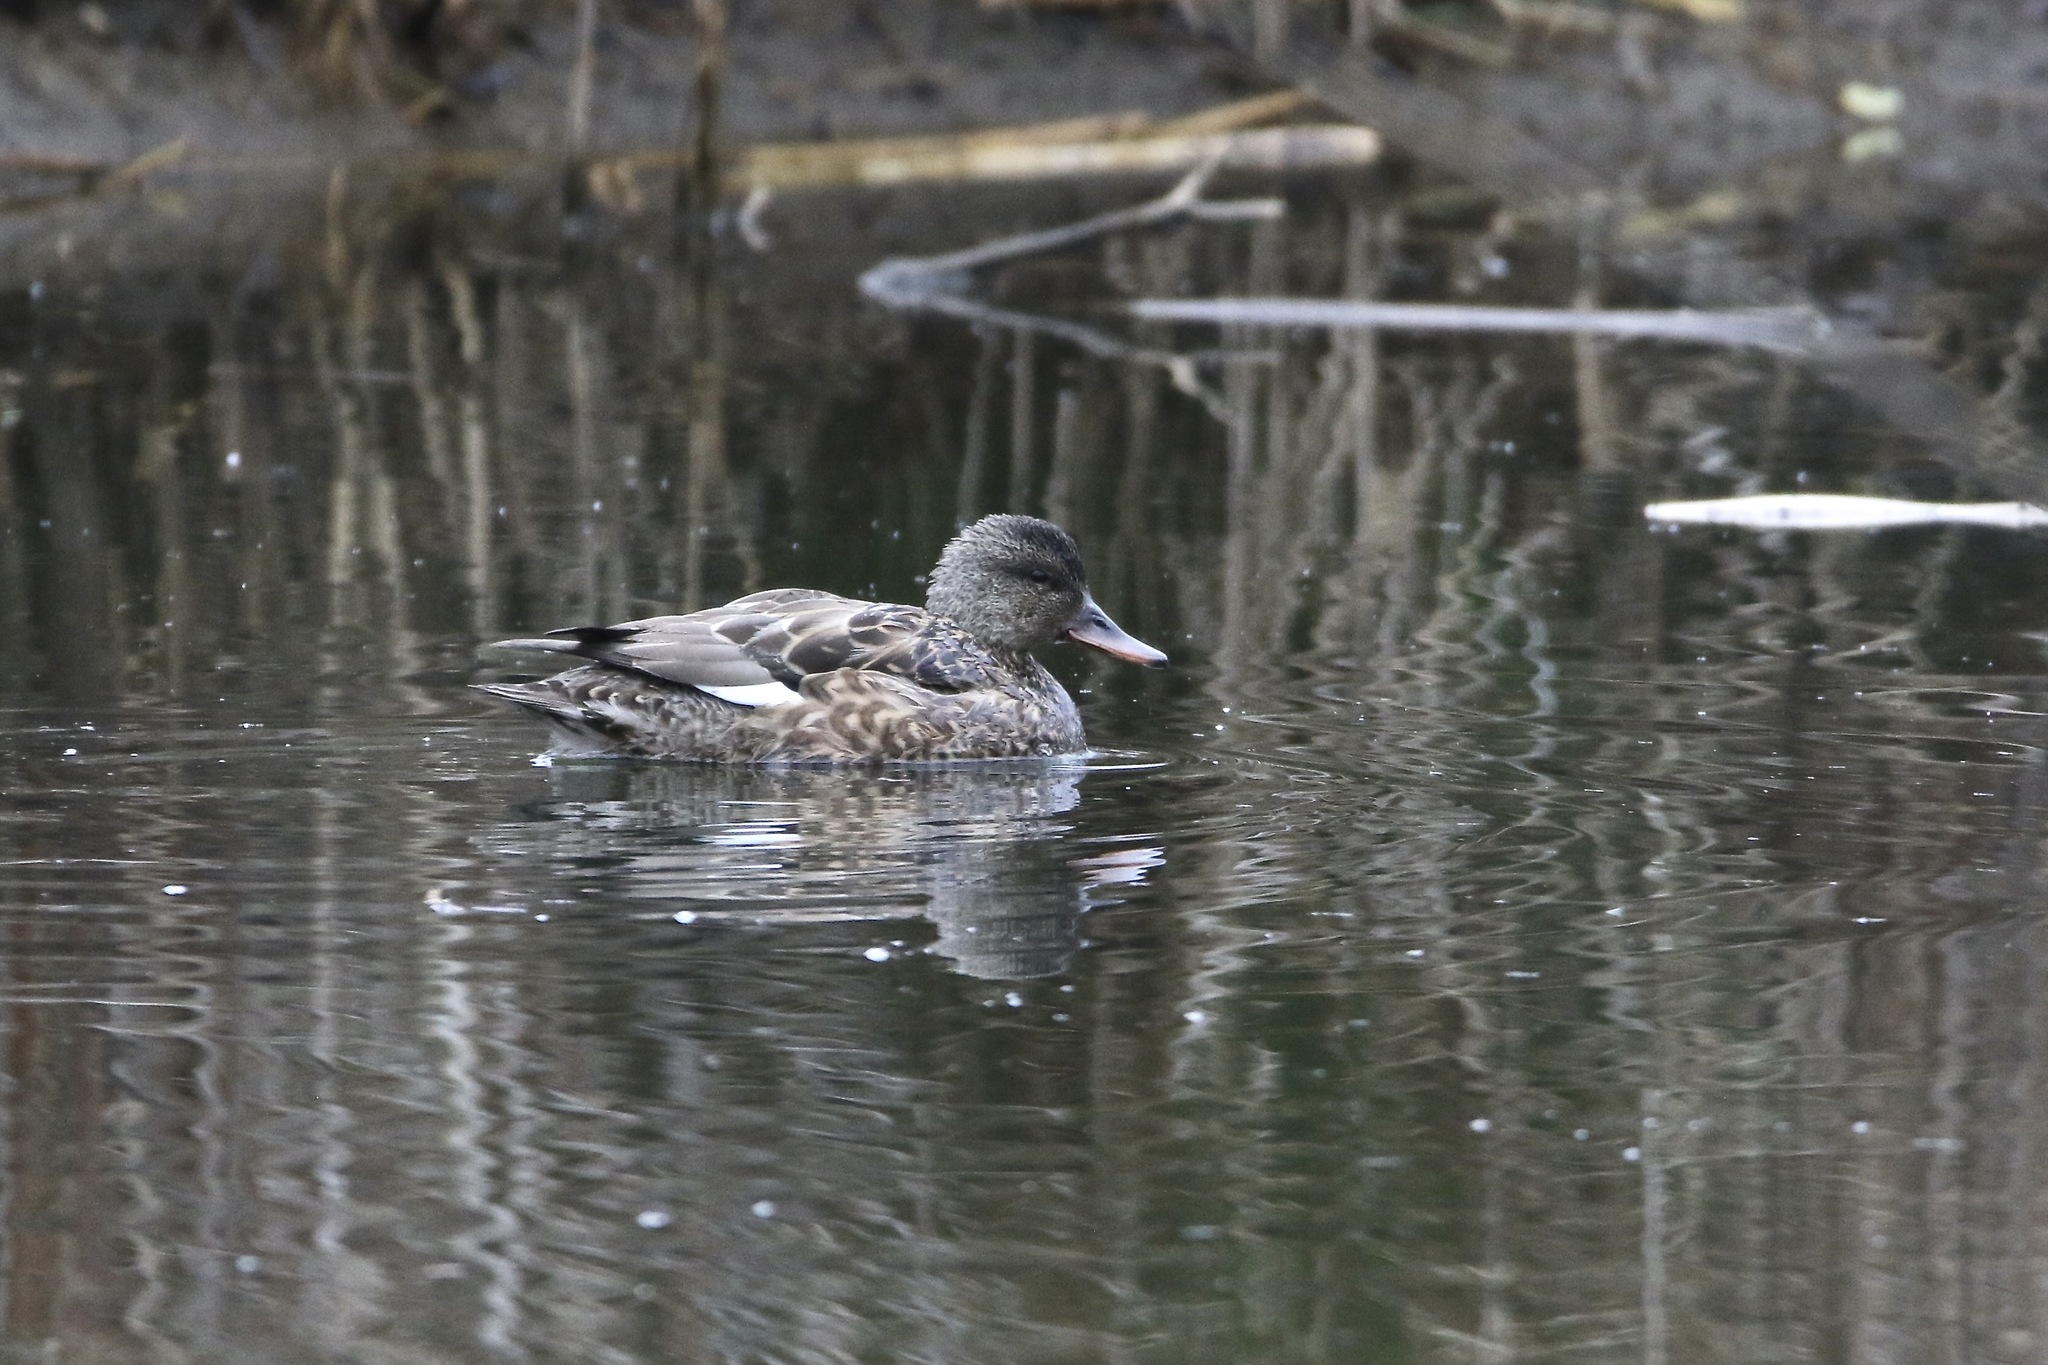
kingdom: Animalia
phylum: Chordata
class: Aves
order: Anseriformes
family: Anatidae
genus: Mareca
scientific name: Mareca strepera
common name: Gadwall
